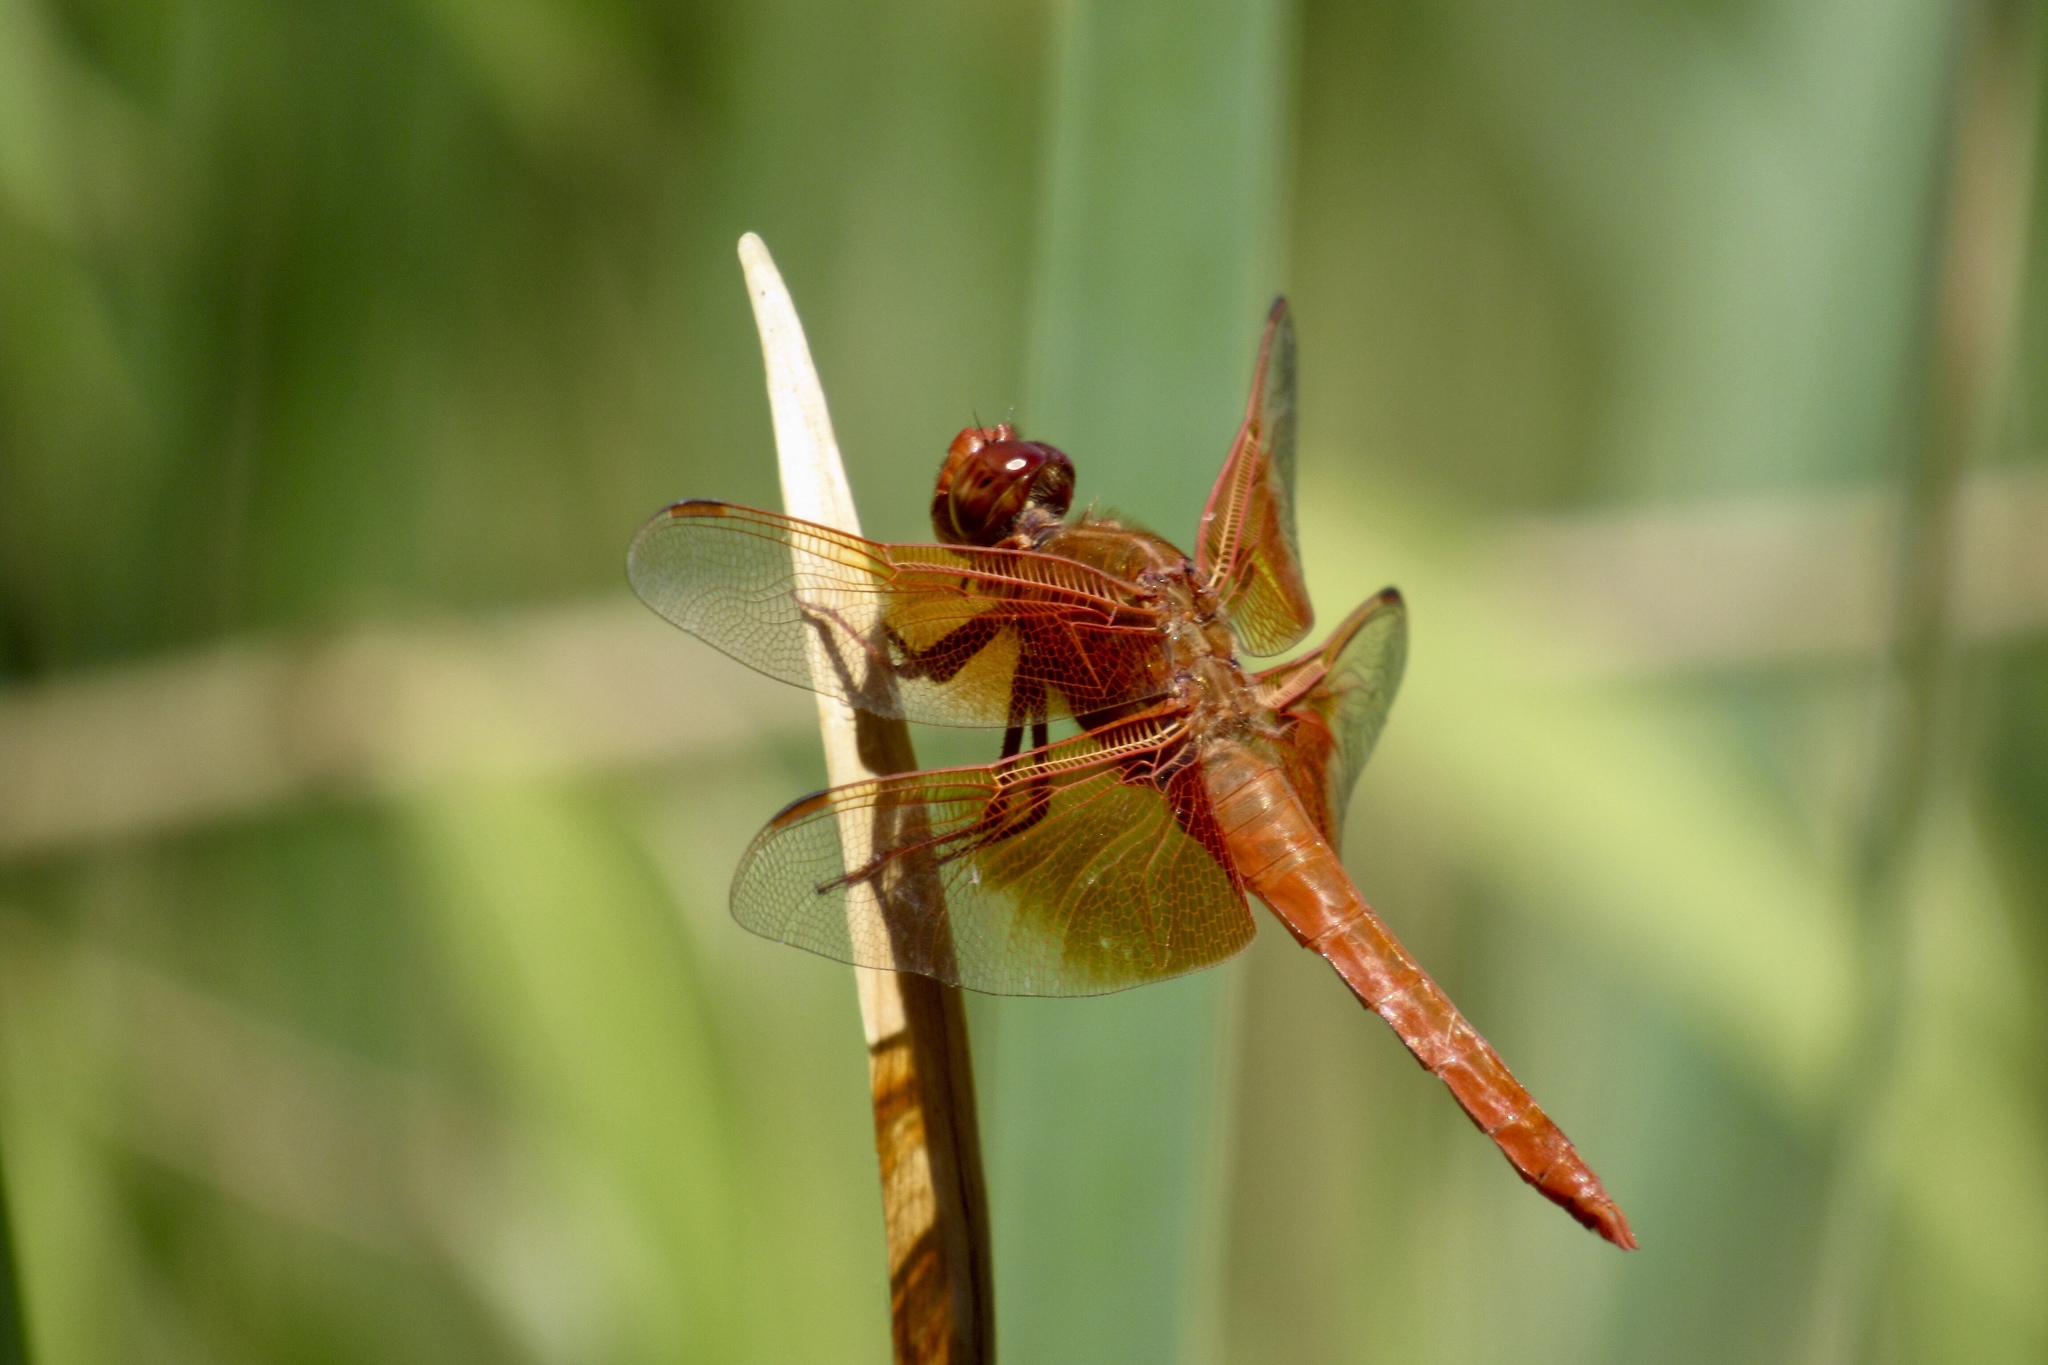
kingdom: Animalia
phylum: Arthropoda
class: Insecta
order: Odonata
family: Libellulidae
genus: Libellula
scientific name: Libellula saturata
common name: Flame skimmer
